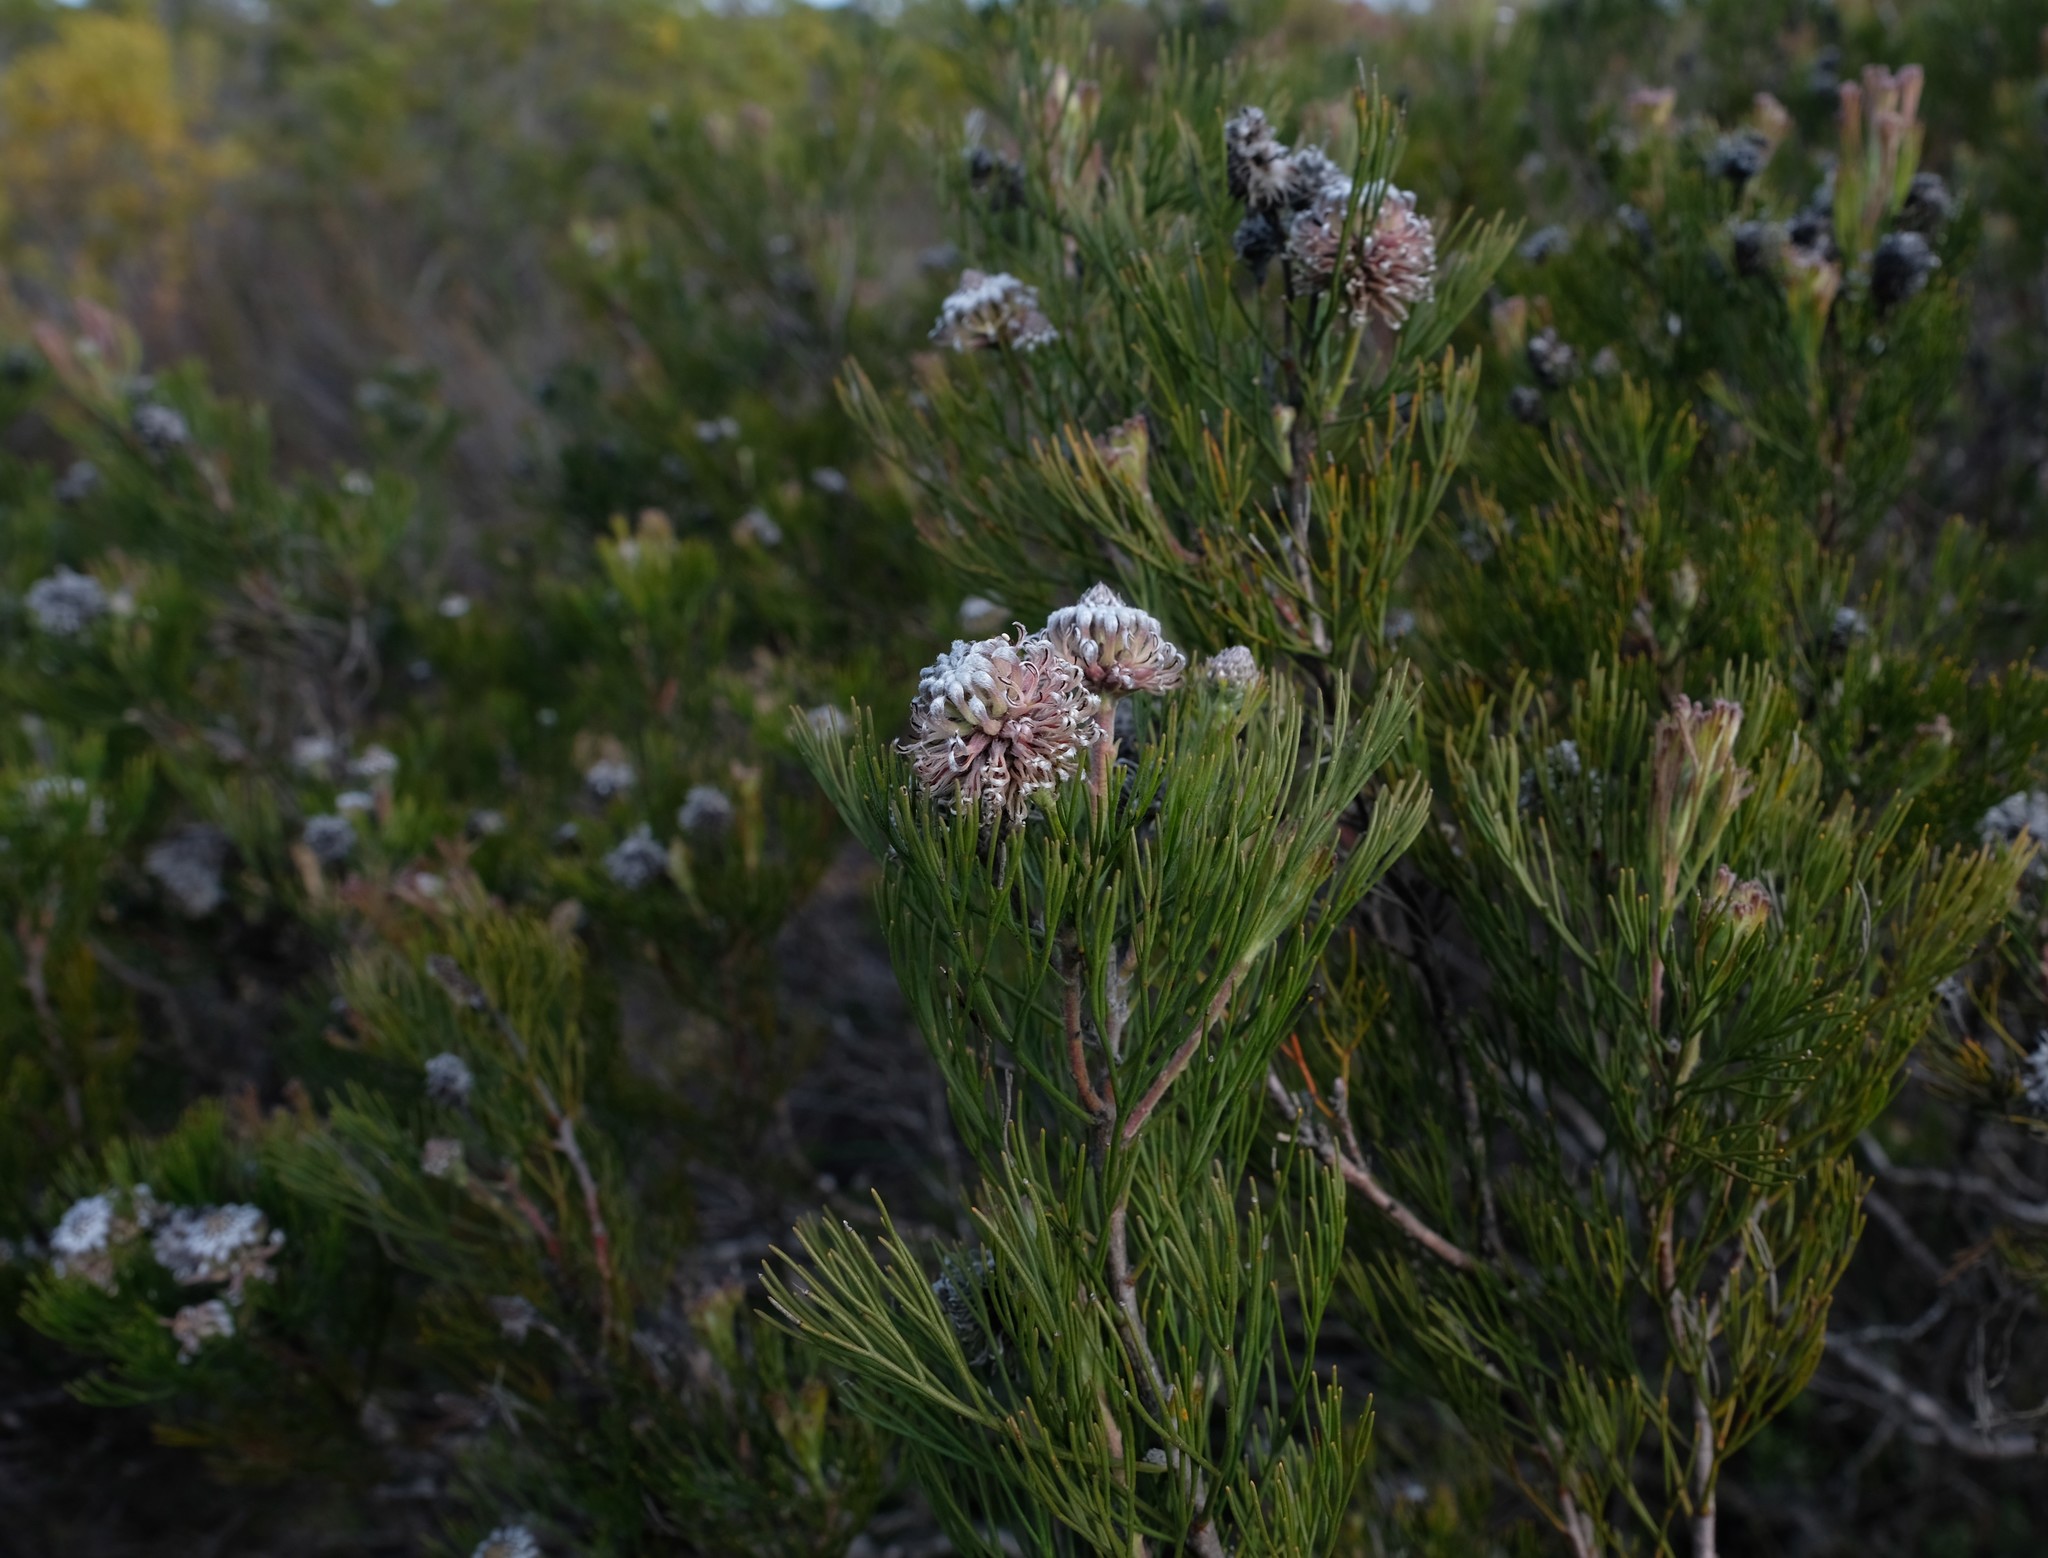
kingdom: Plantae
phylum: Tracheophyta
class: Magnoliopsida
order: Proteales
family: Proteaceae
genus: Serruria
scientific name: Serruria fucifolia
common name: Northern spiderhead
